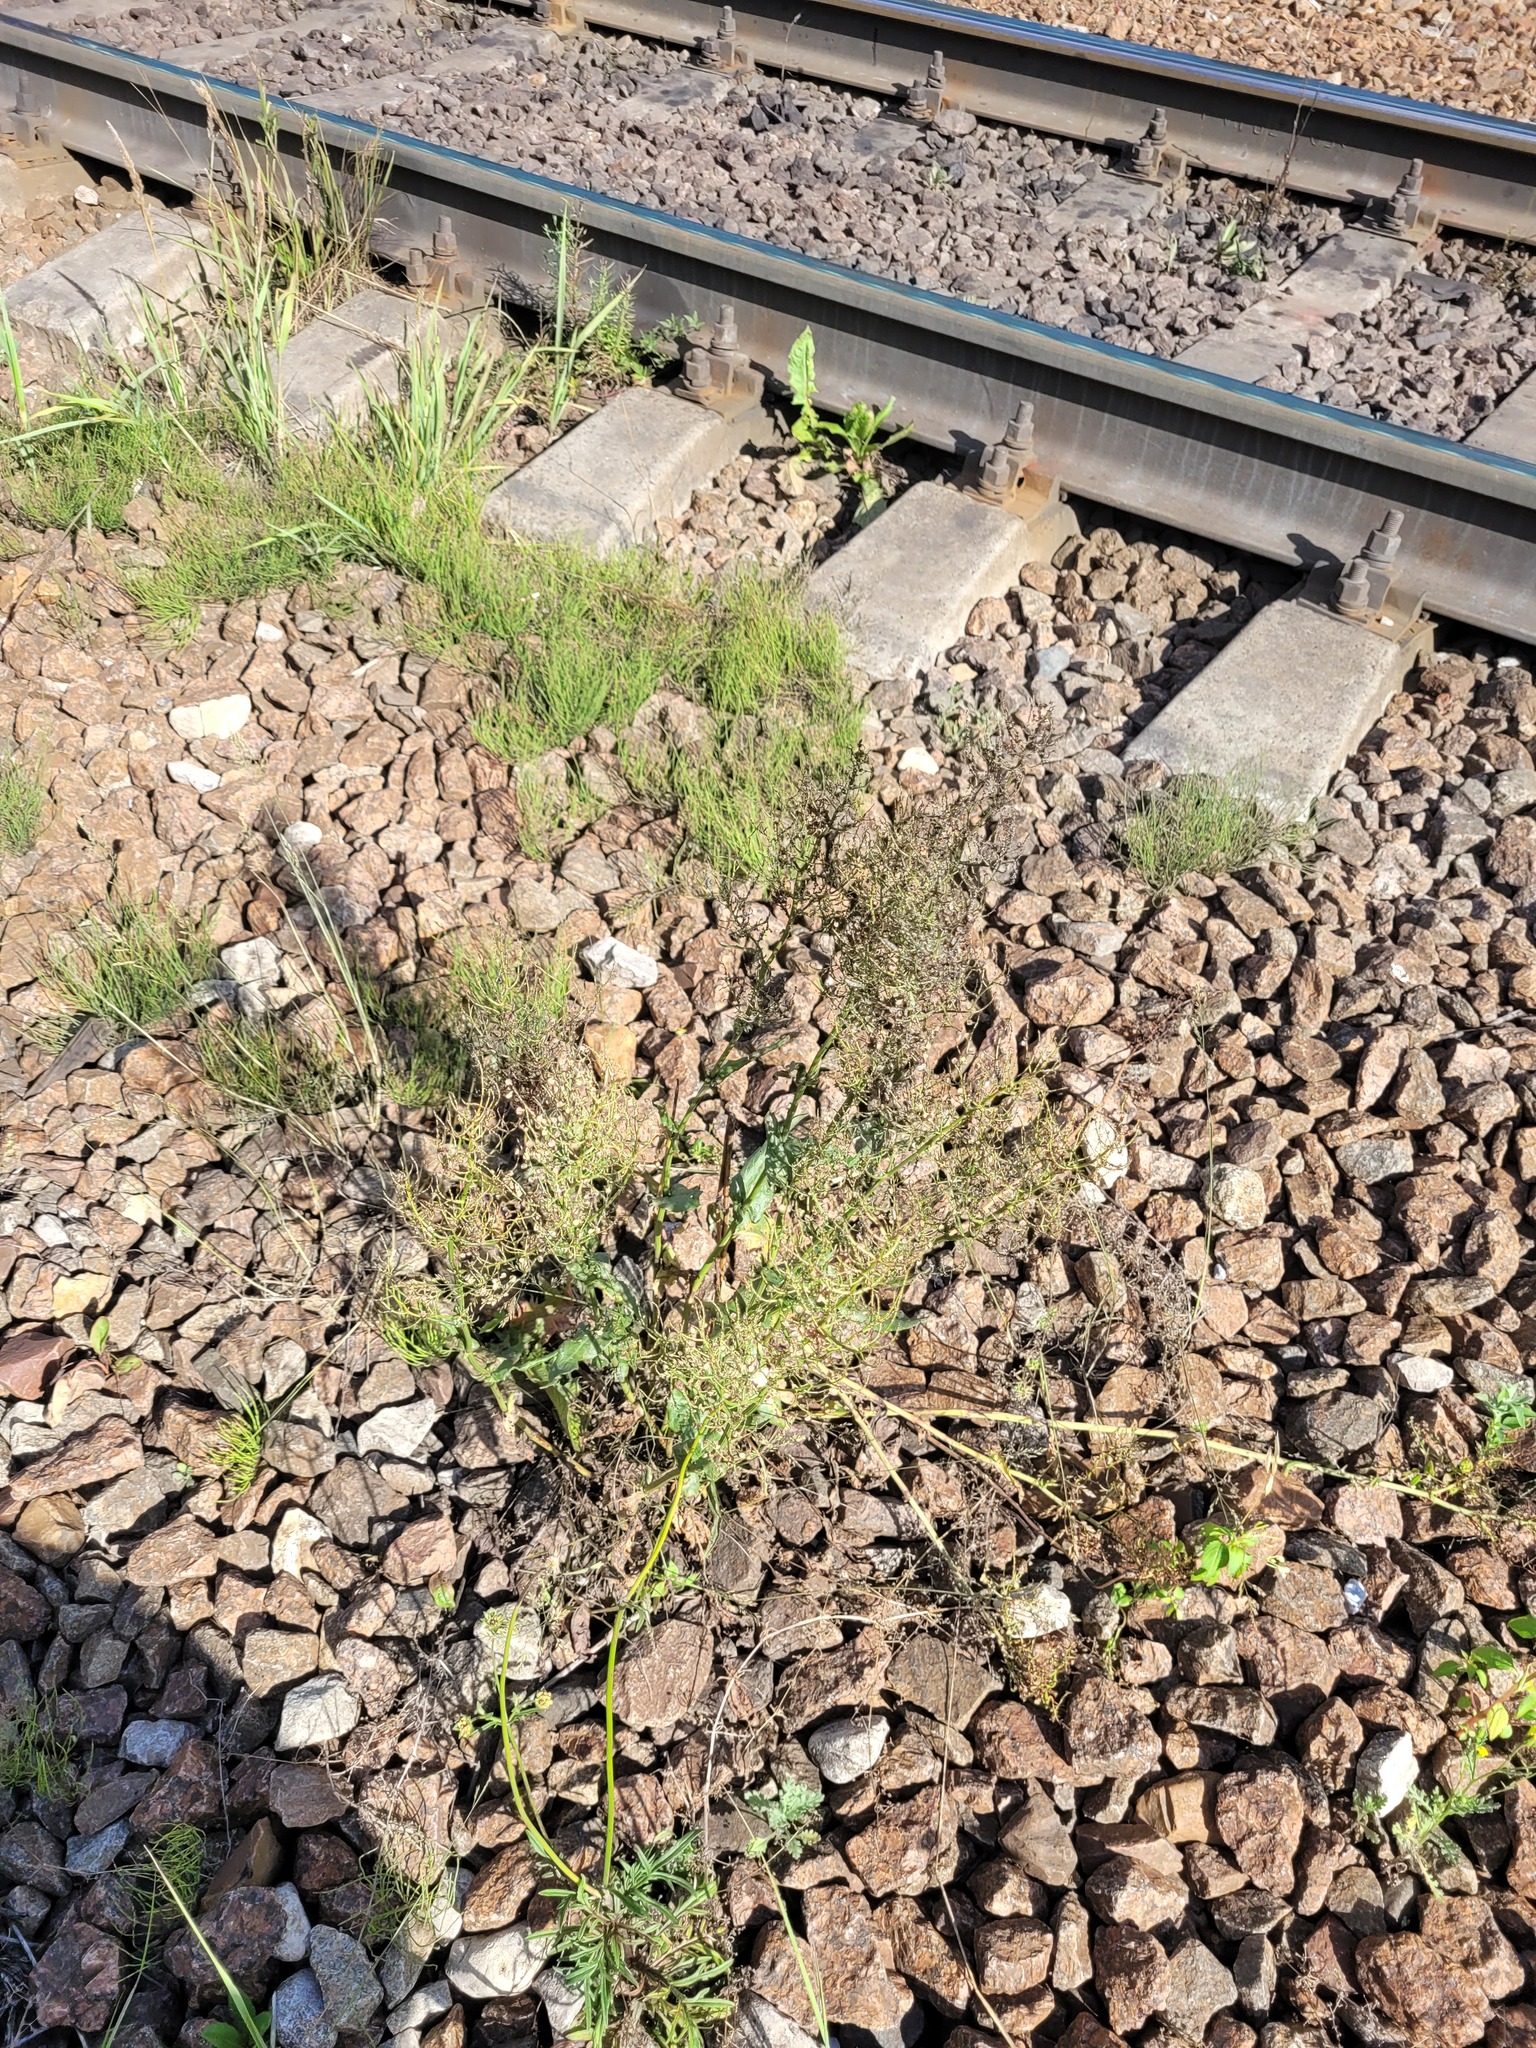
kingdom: Plantae
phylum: Tracheophyta
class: Magnoliopsida
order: Caryophyllales
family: Polygonaceae
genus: Rumex
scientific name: Rumex thyrsiflorus
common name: Garden sorrel
